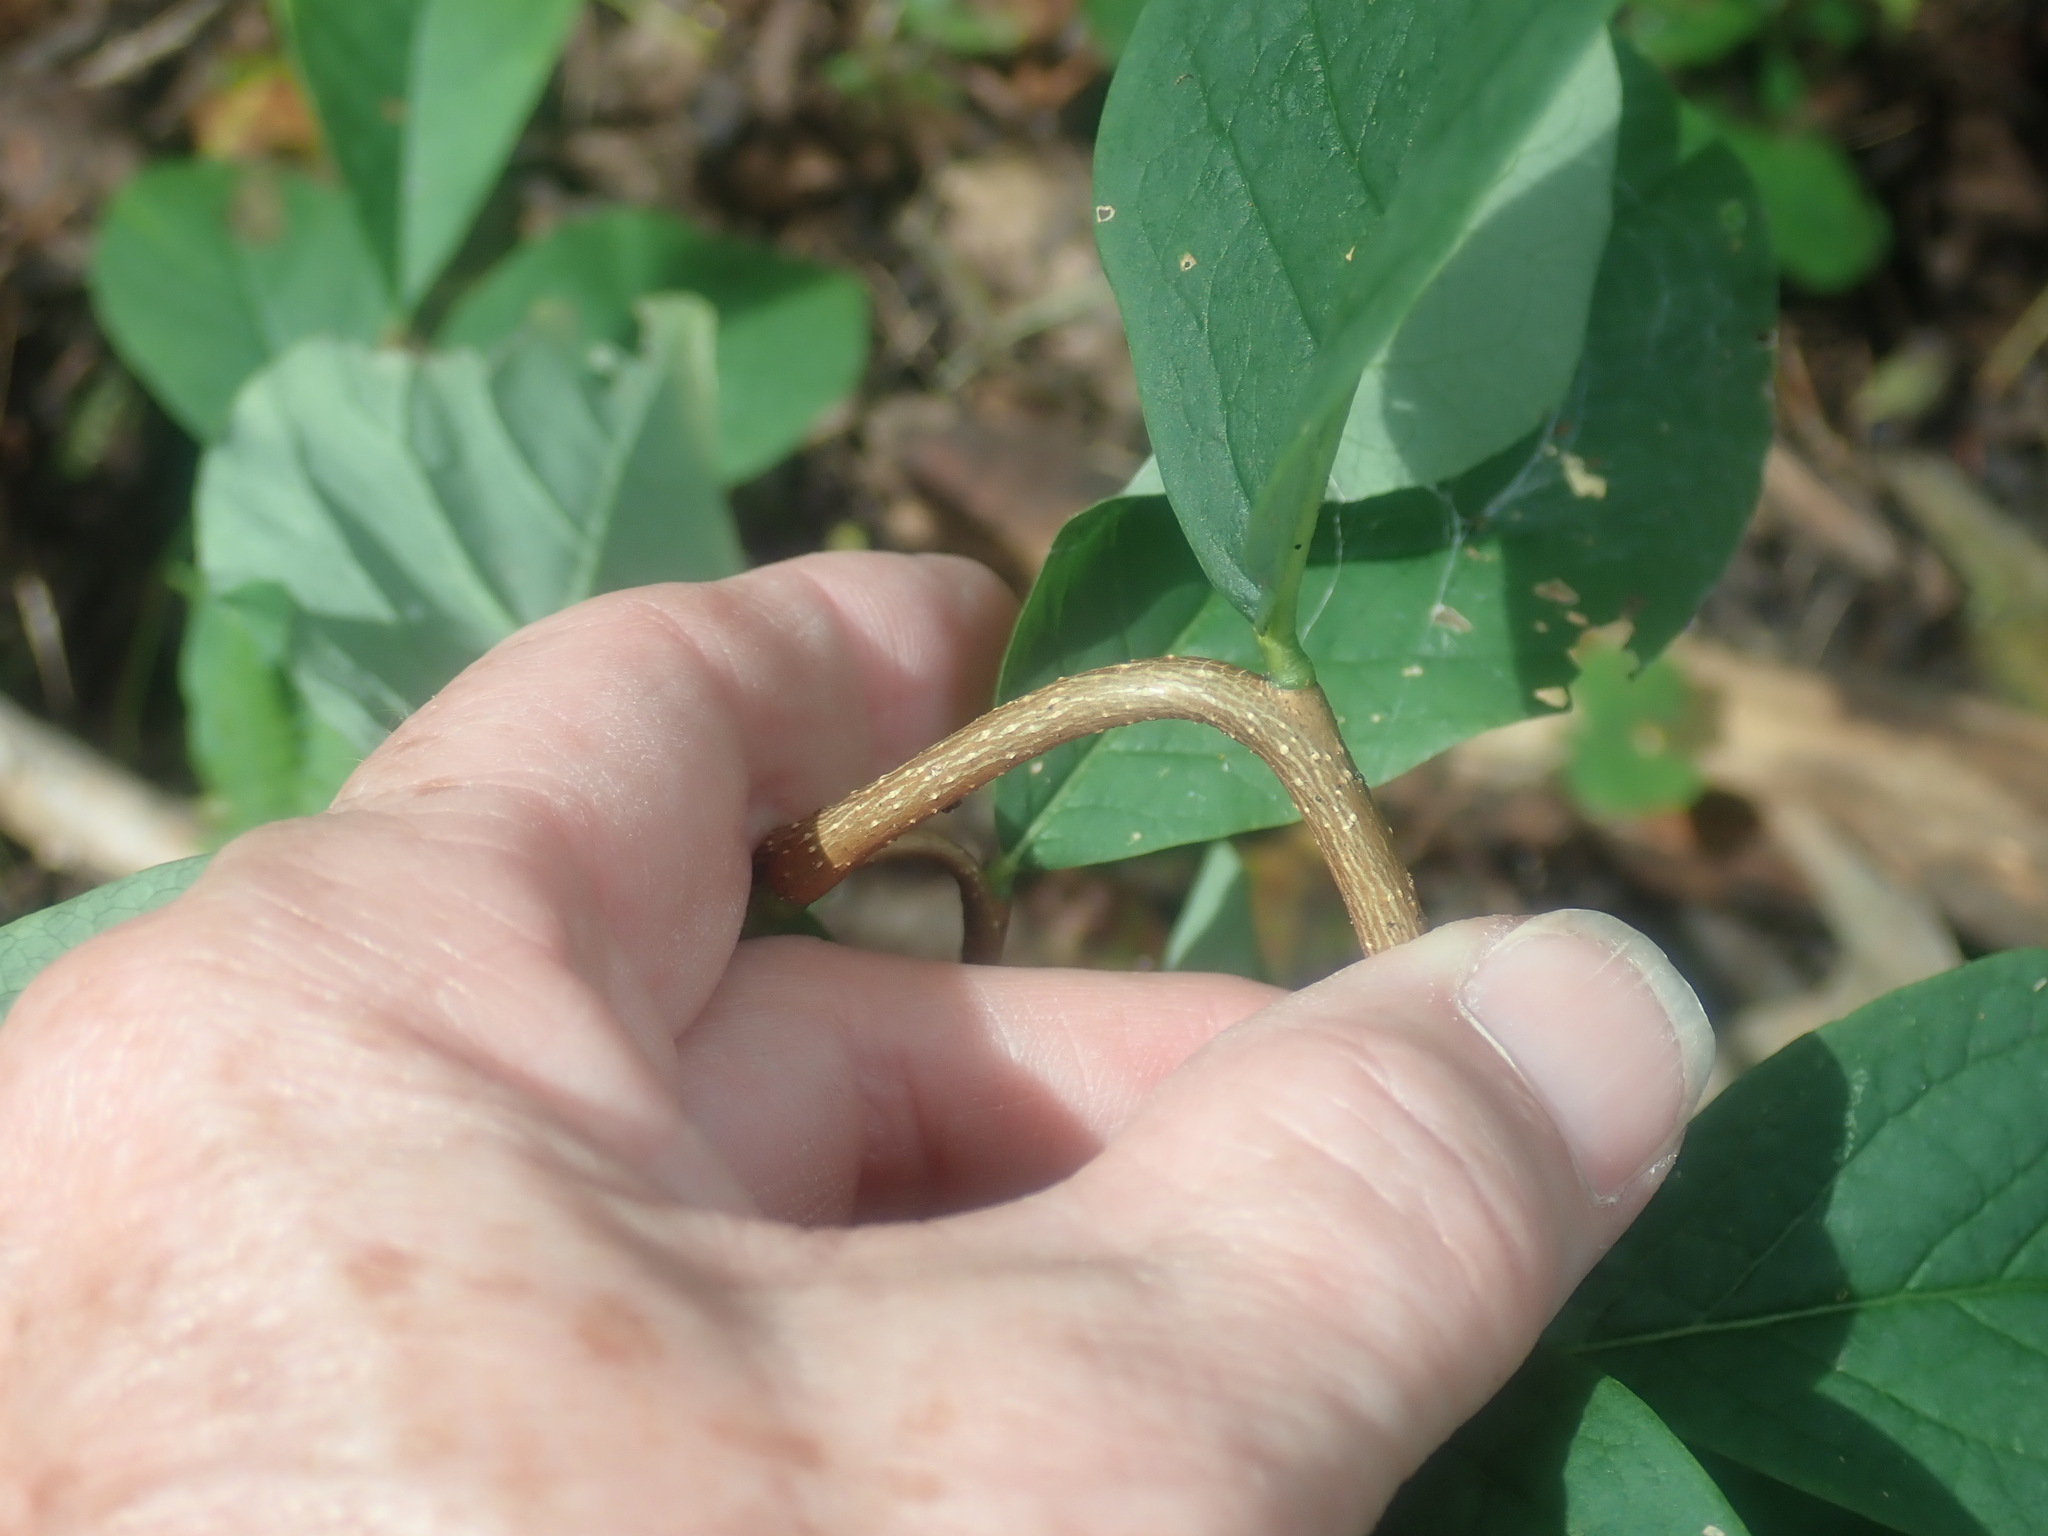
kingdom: Plantae
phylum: Tracheophyta
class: Magnoliopsida
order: Malvales
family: Thymelaeaceae
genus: Dirca
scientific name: Dirca palustris
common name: Leatherwood
